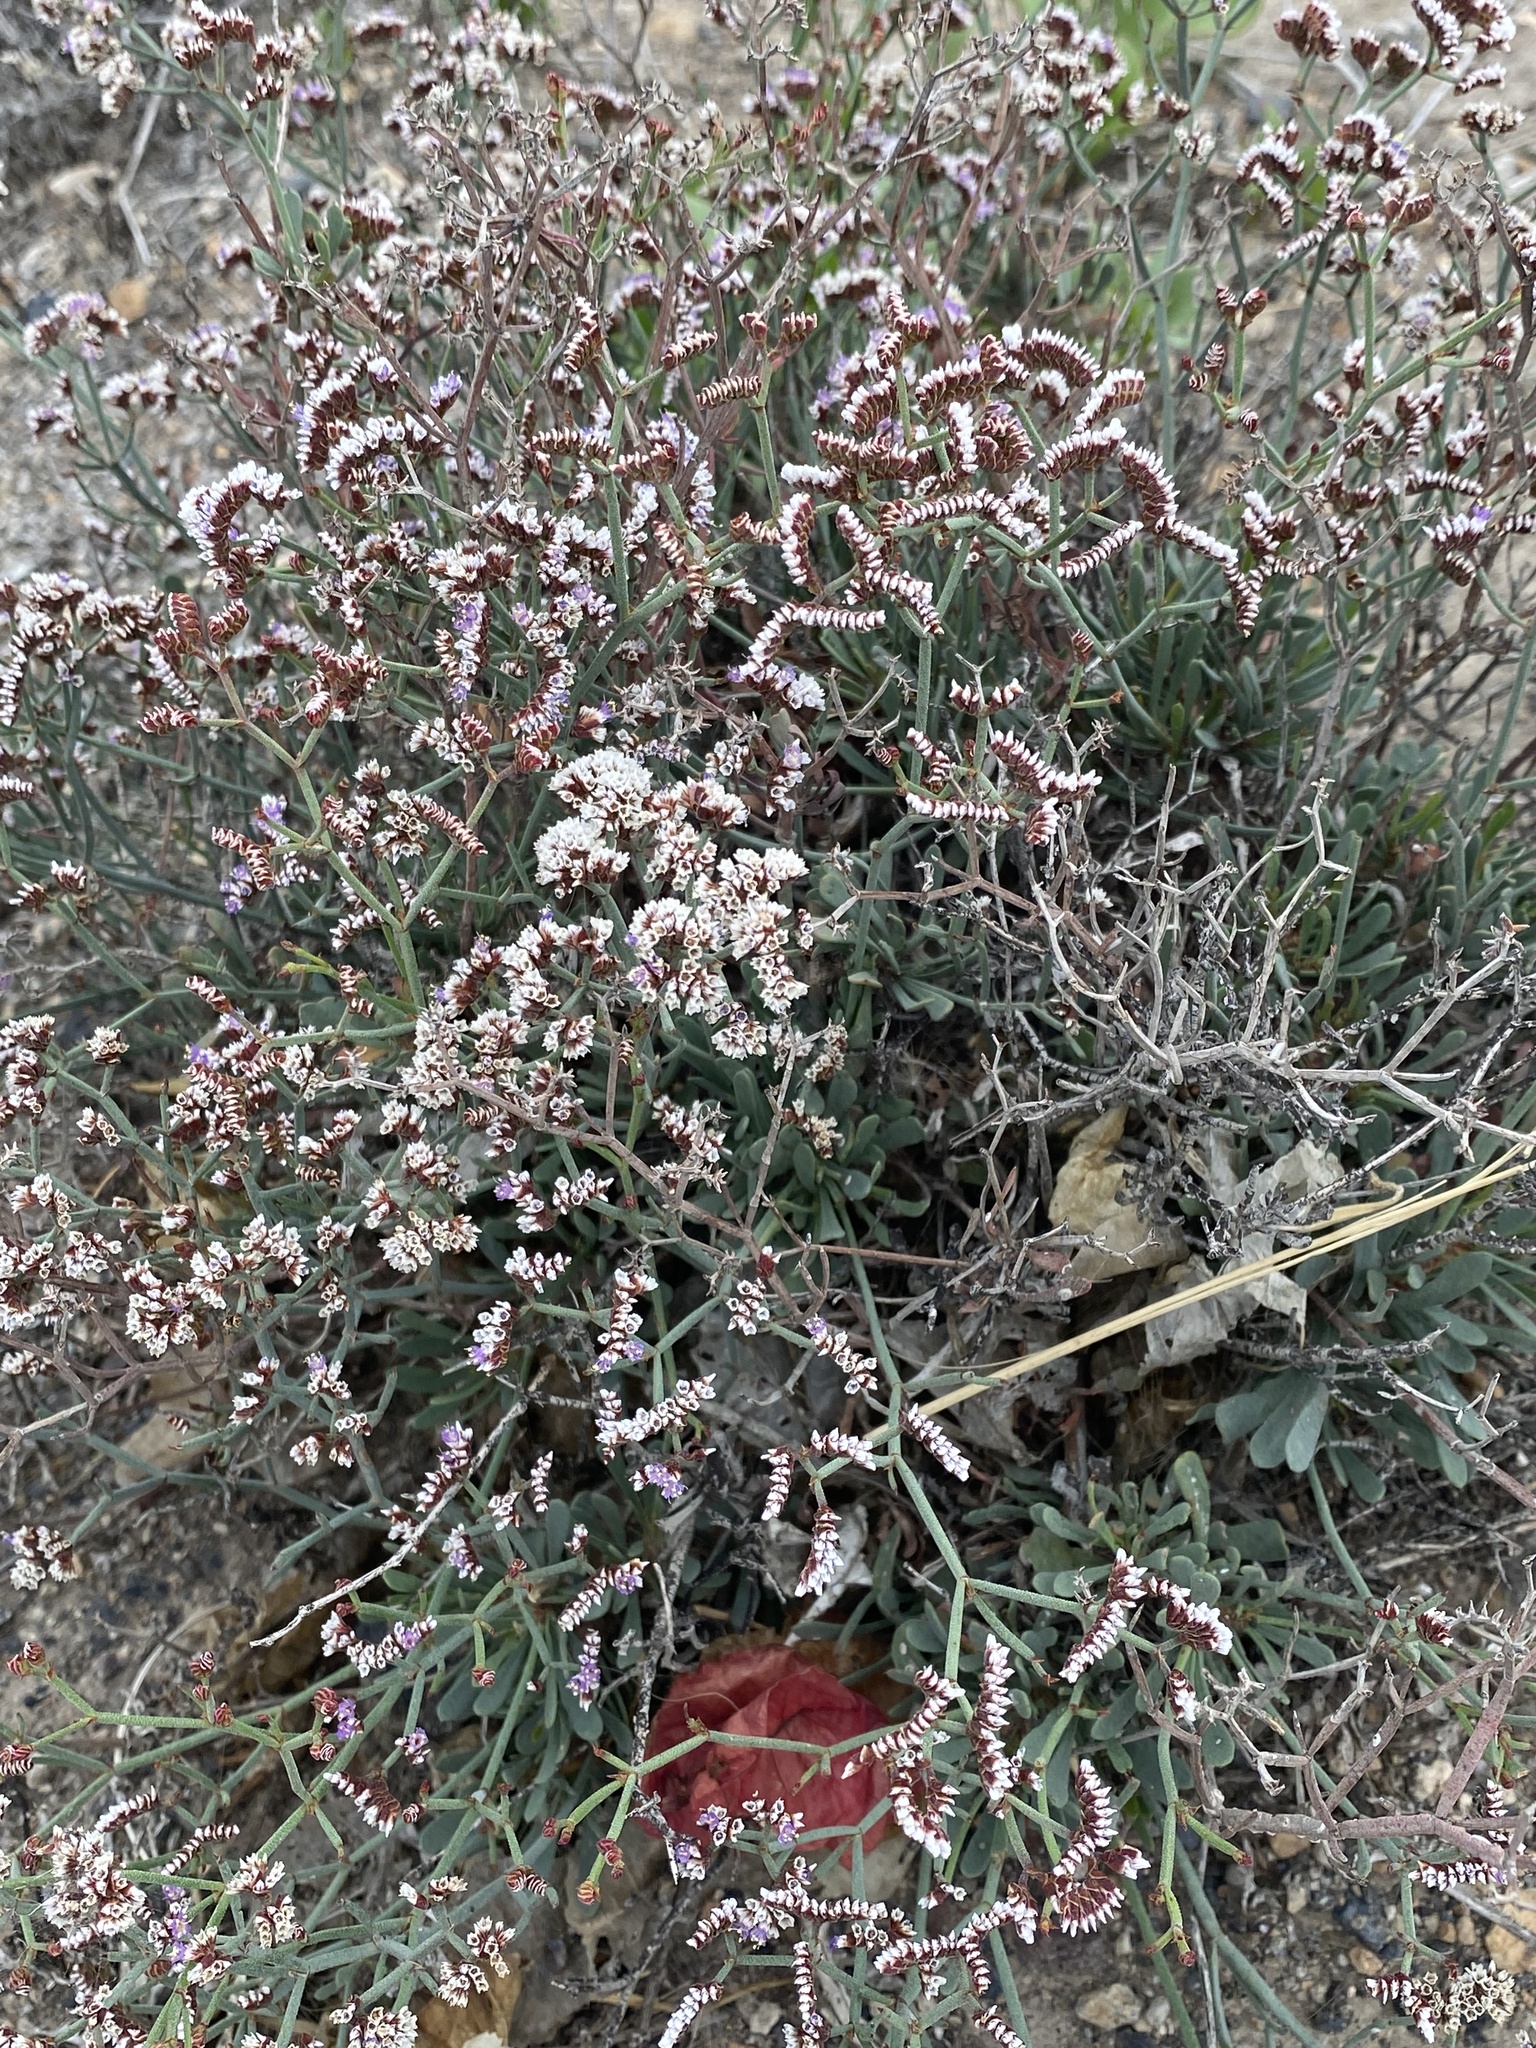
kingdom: Plantae
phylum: Tracheophyta
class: Magnoliopsida
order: Caryophyllales
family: Plumbaginaceae
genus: Limonium
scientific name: Limonium pectinatum
